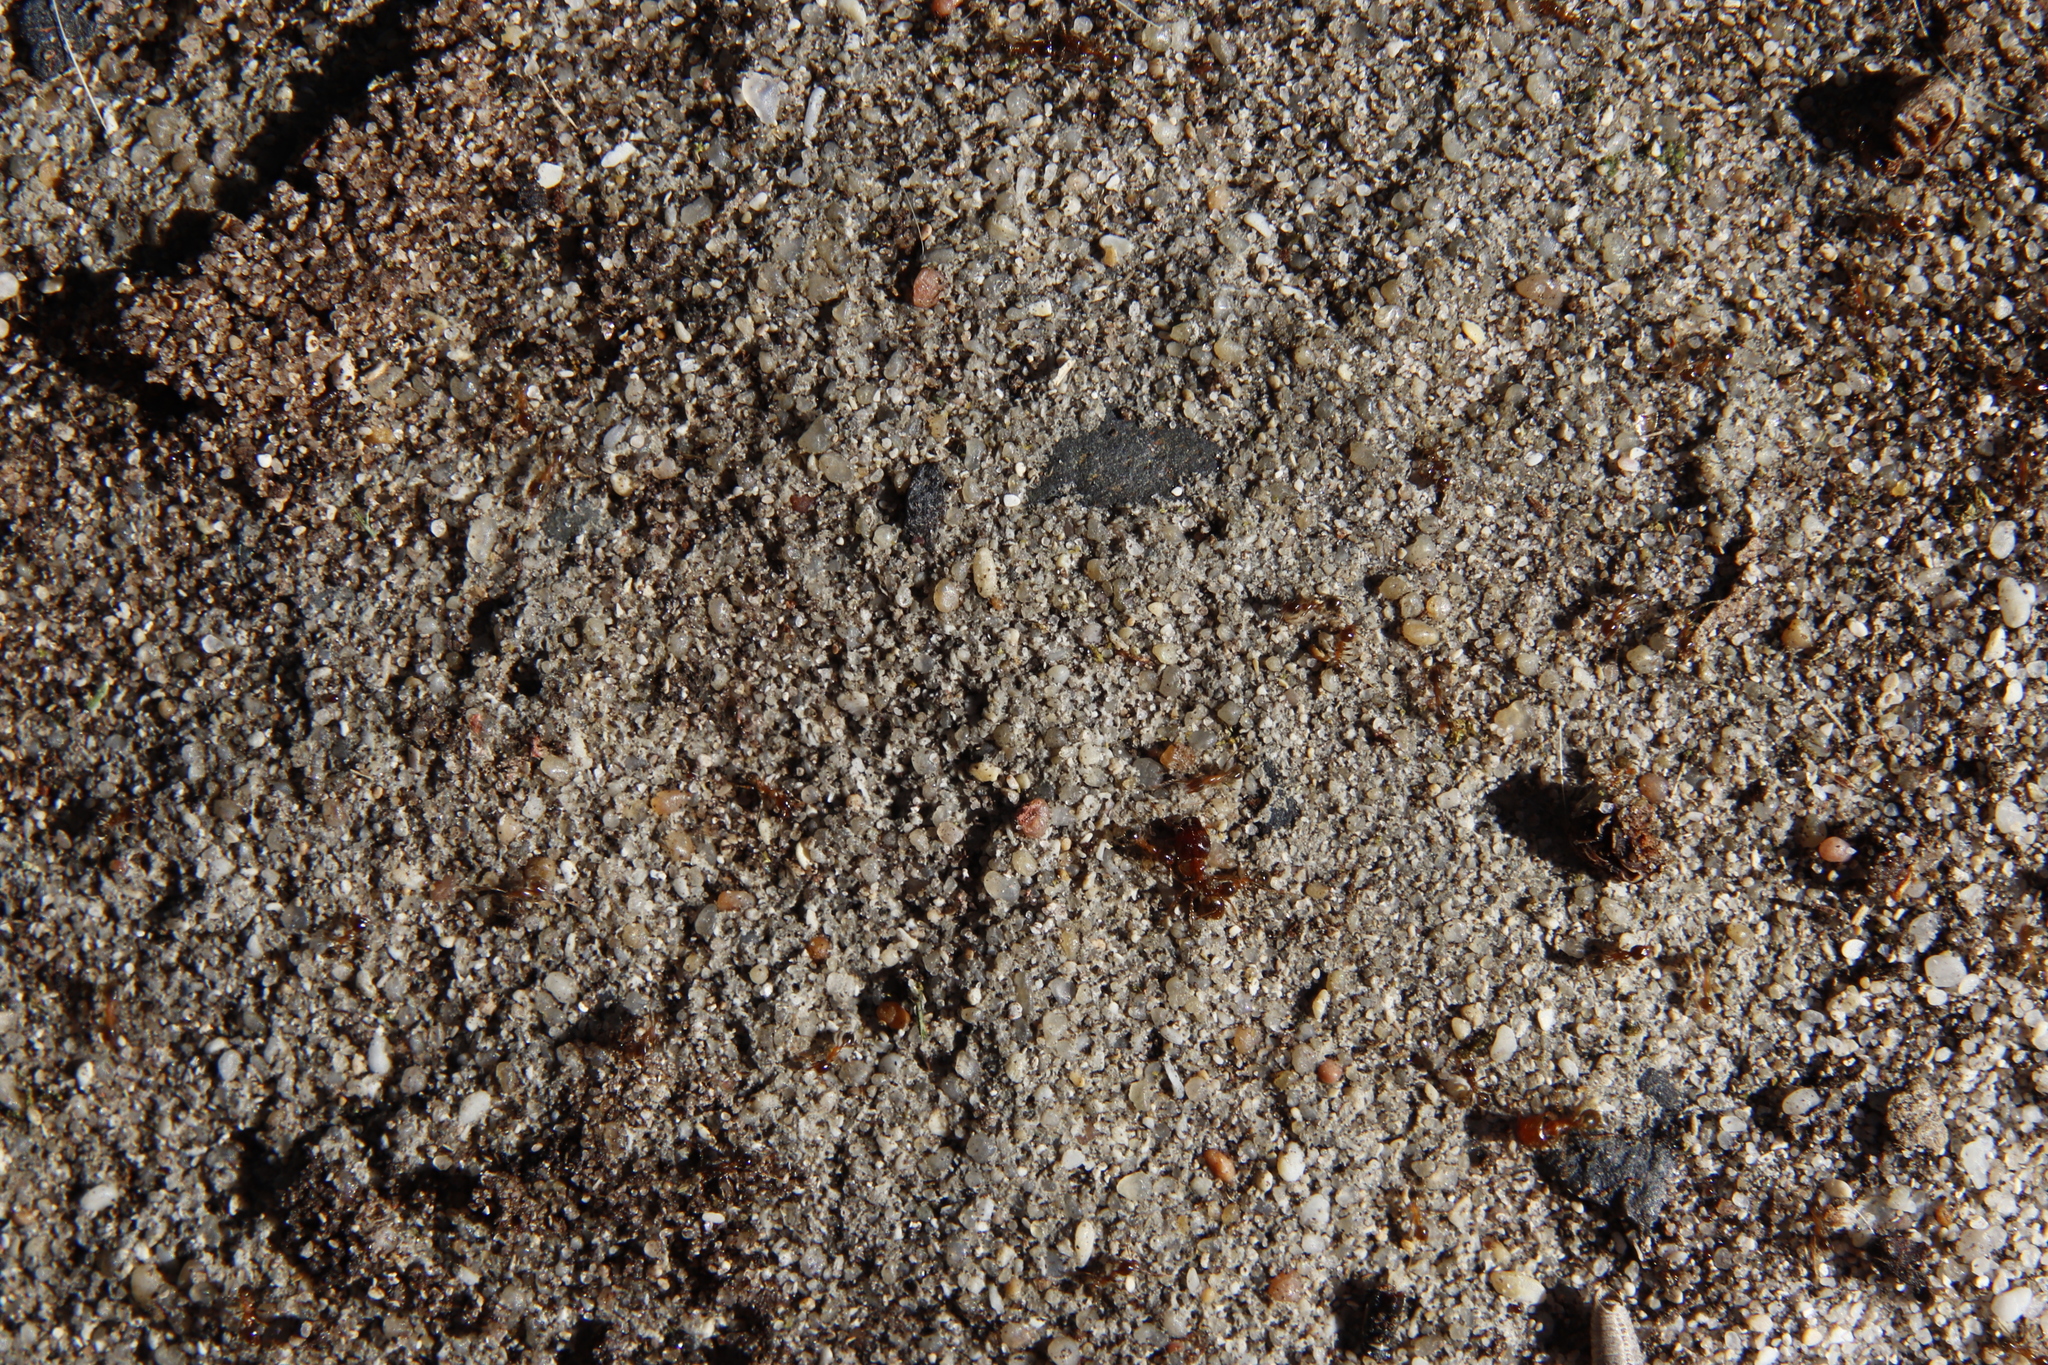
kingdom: Animalia
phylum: Arthropoda
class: Insecta
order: Hymenoptera
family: Formicidae
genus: Pheidole
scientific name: Pheidole megacephala
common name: Bigheaded ant
